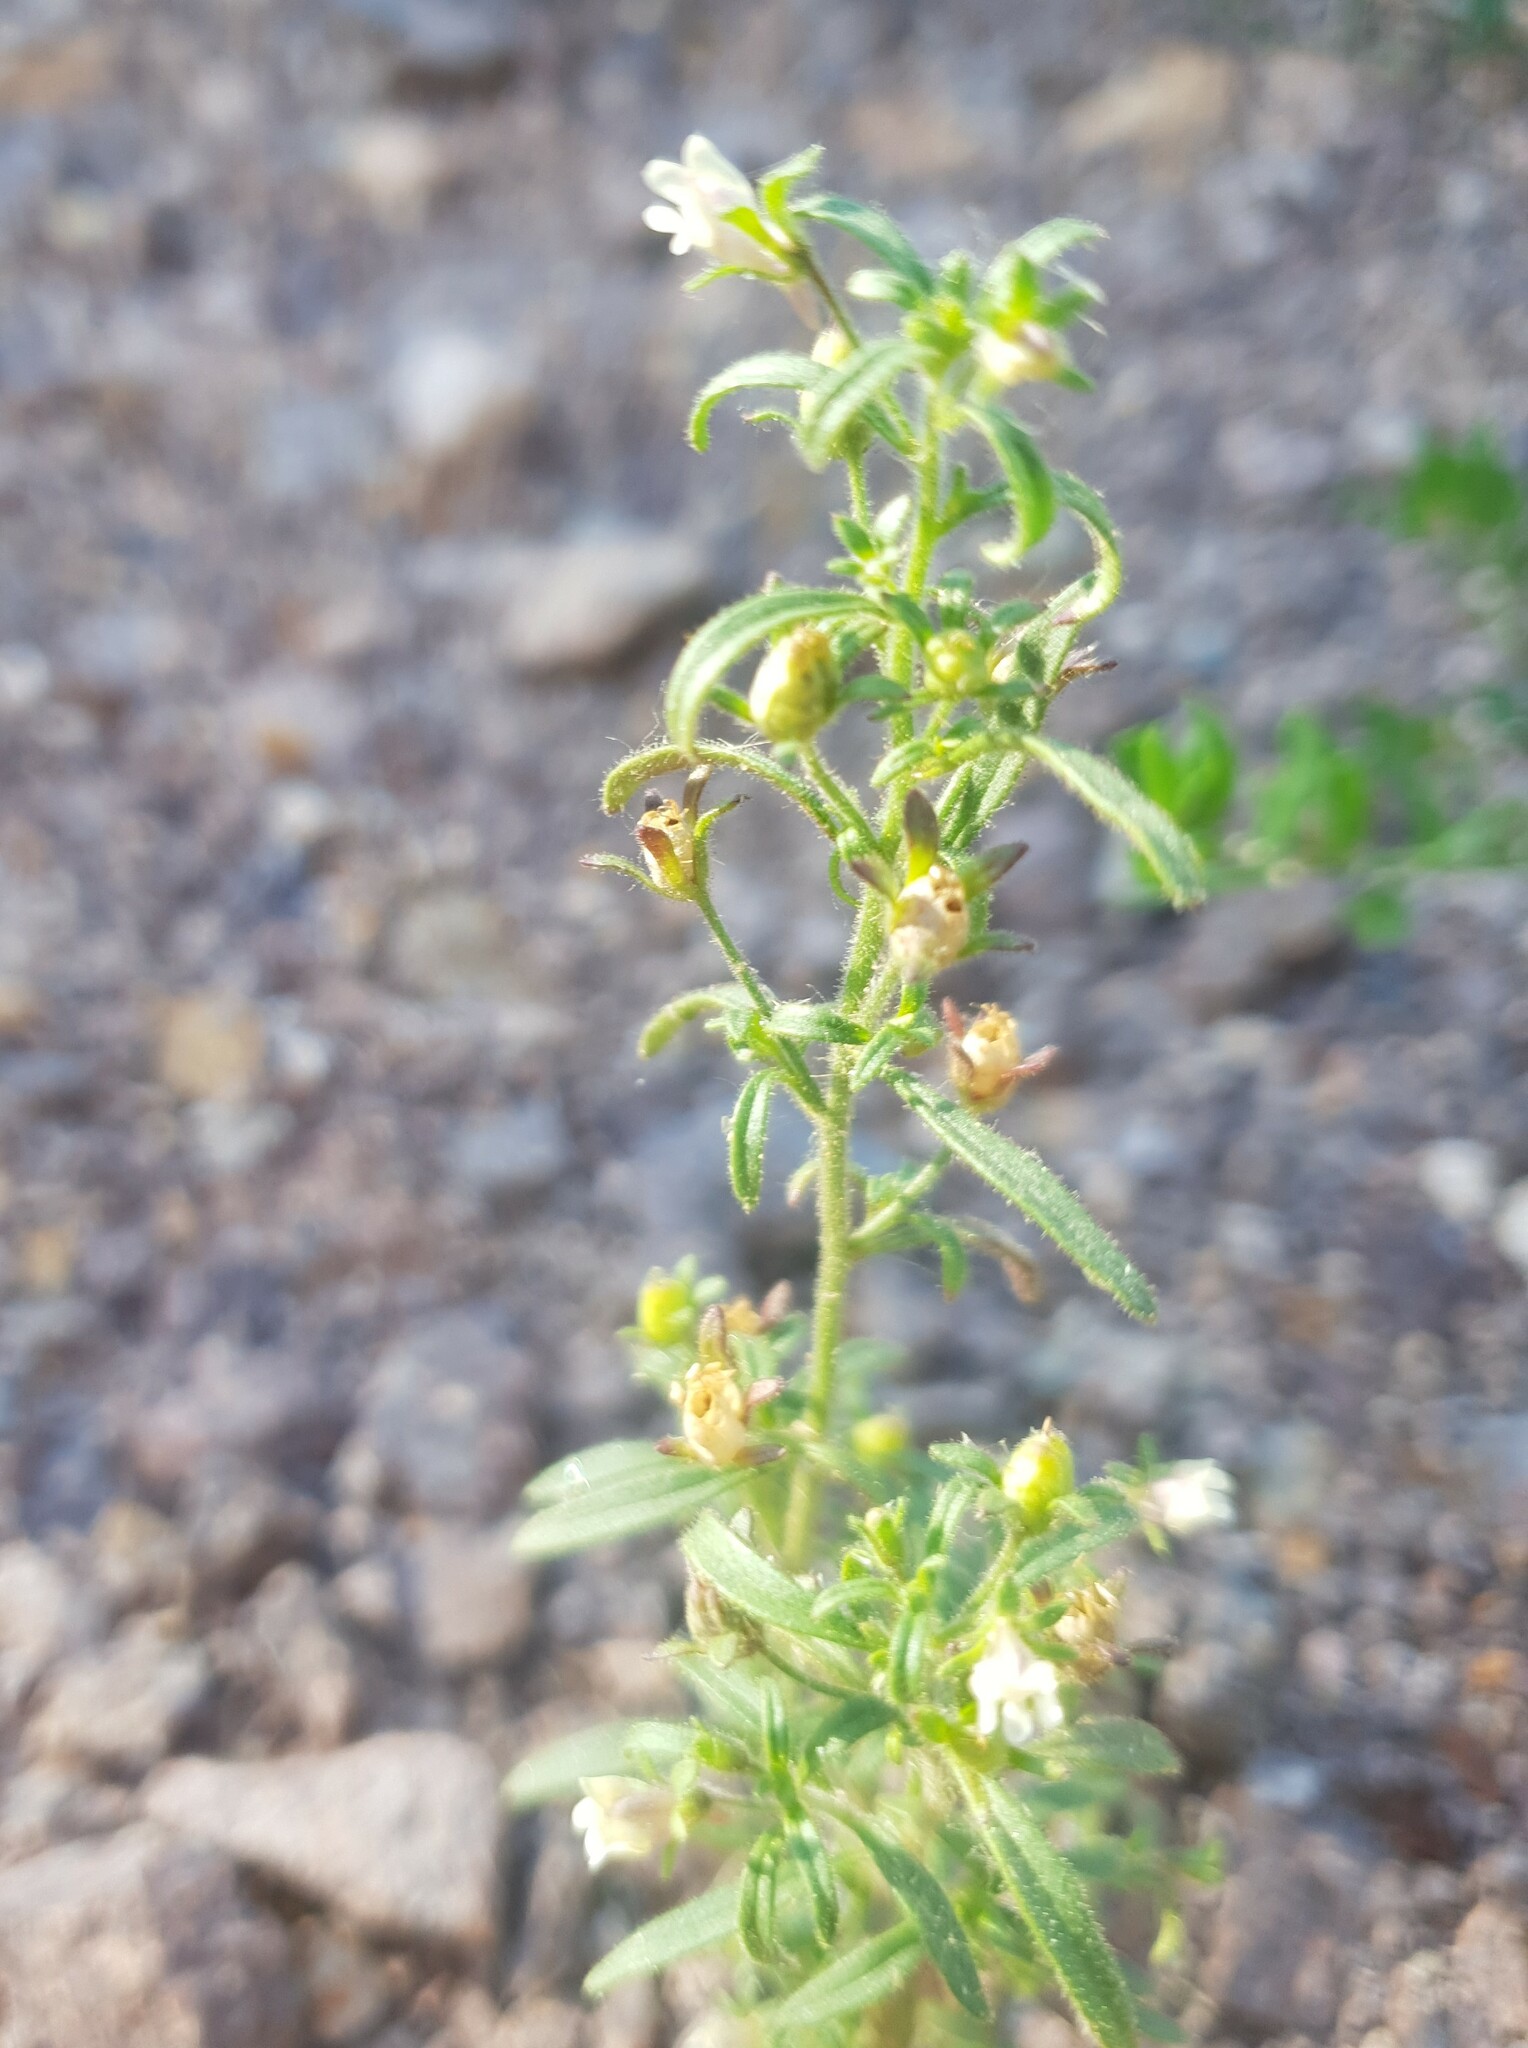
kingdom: Plantae
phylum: Tracheophyta
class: Magnoliopsida
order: Lamiales
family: Plantaginaceae
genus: Chaenorhinum
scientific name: Chaenorhinum minus
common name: Dwarf snapdragon
